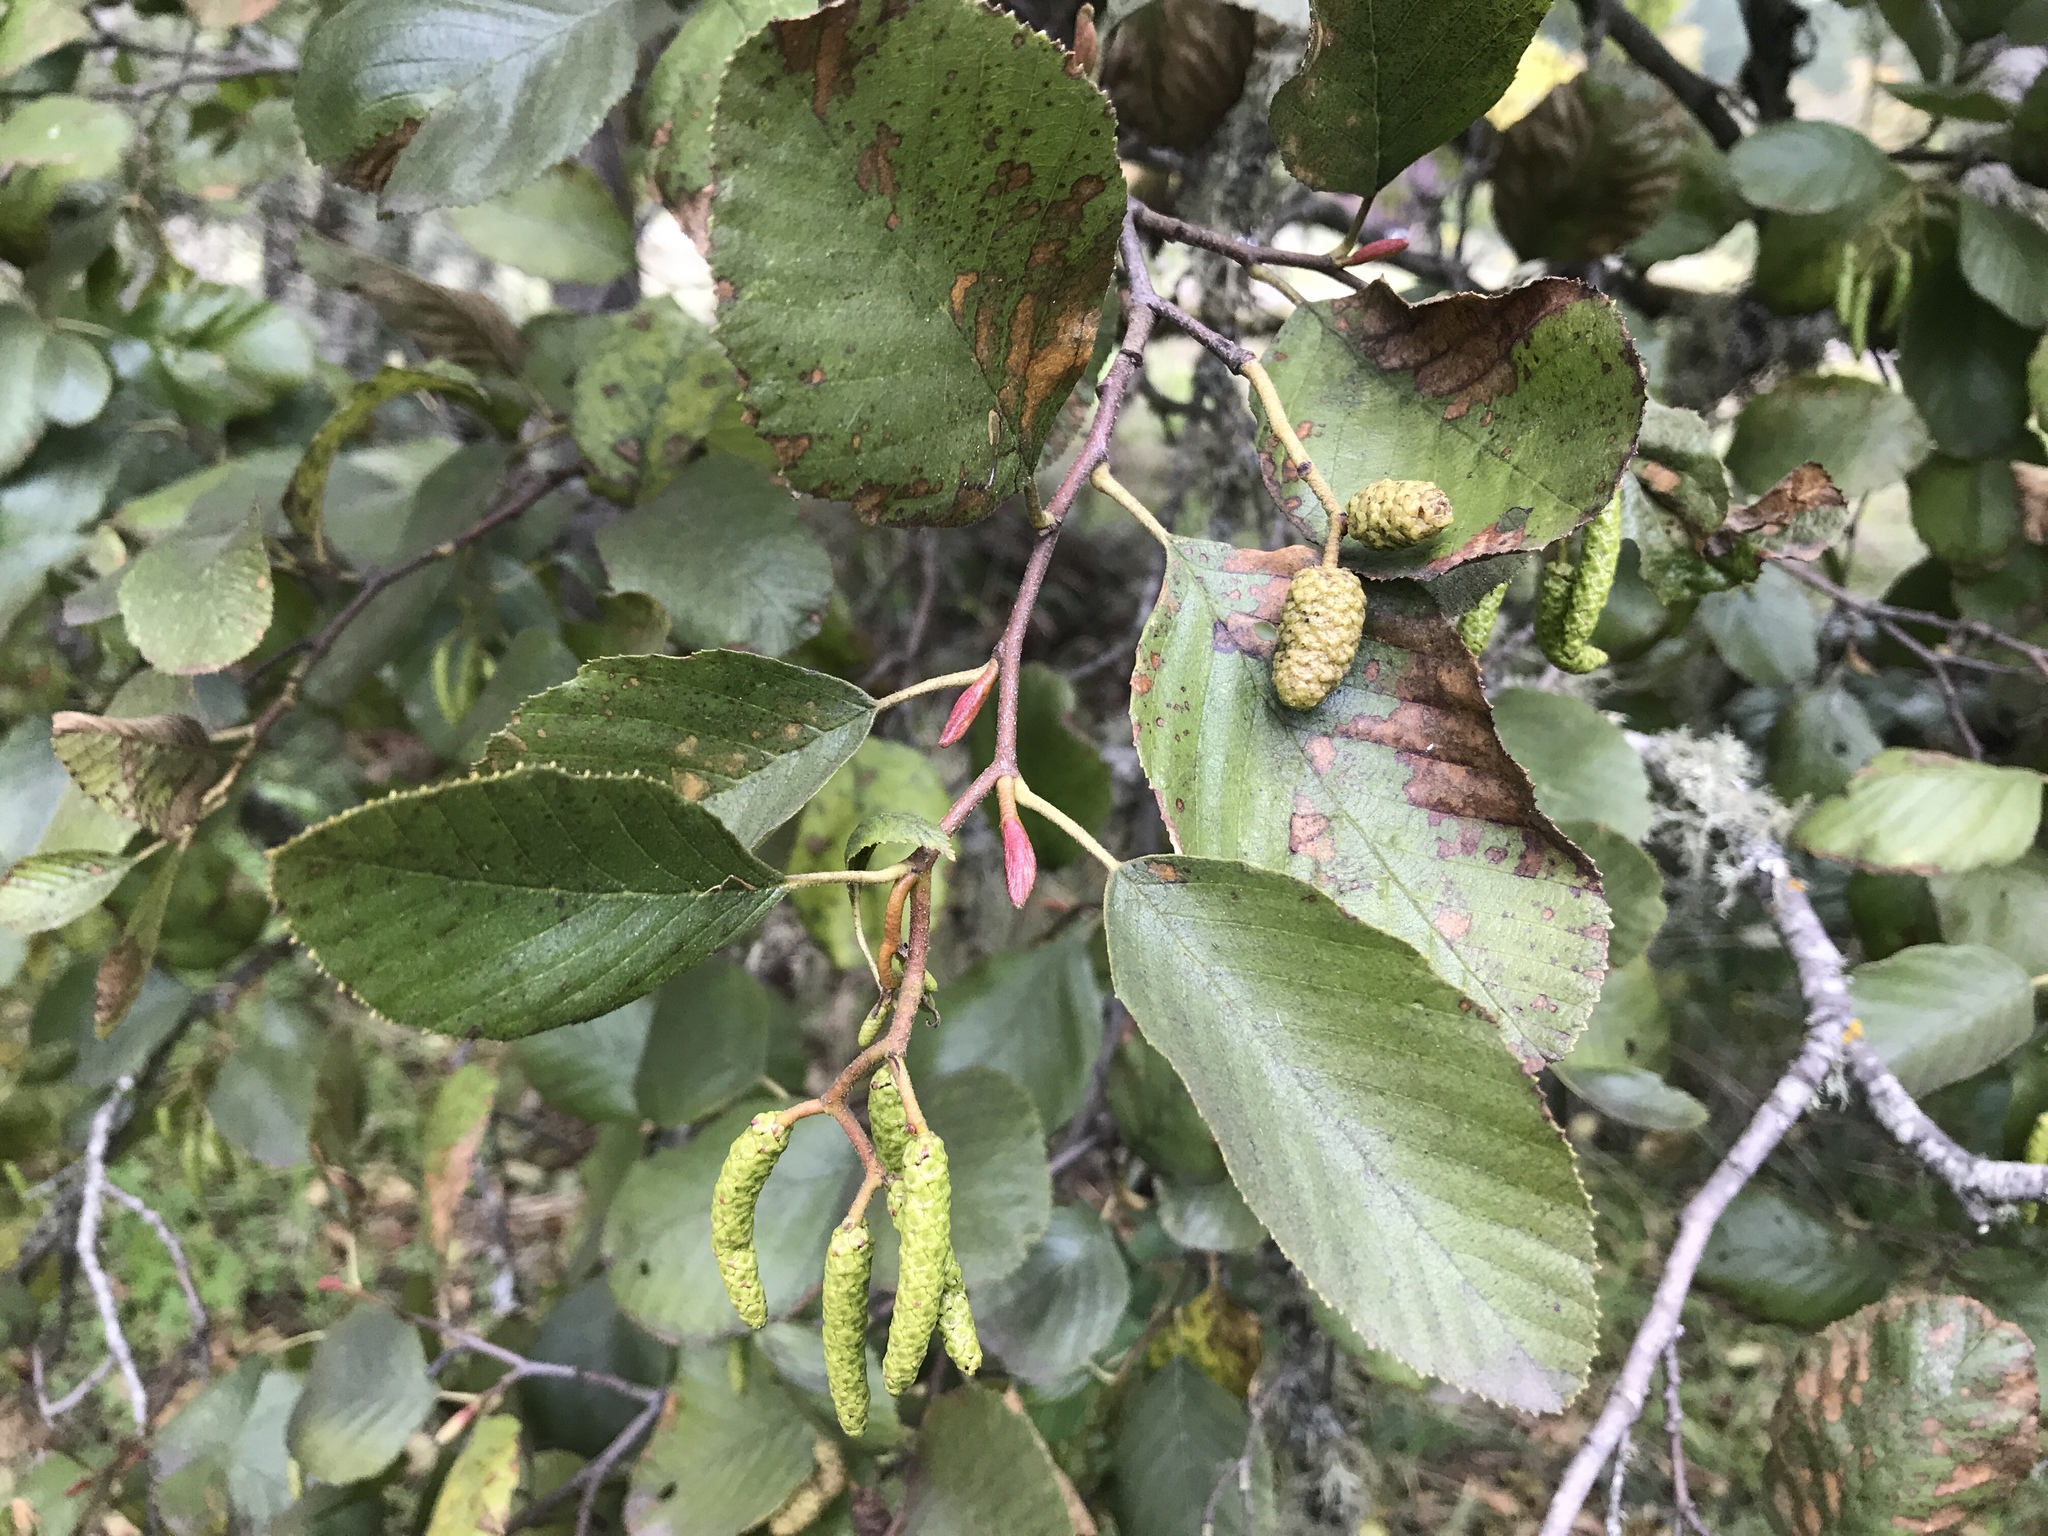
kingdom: Plantae
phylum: Tracheophyta
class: Magnoliopsida
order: Fagales
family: Betulaceae
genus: Alnus
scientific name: Alnus rhombifolia
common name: California alder
